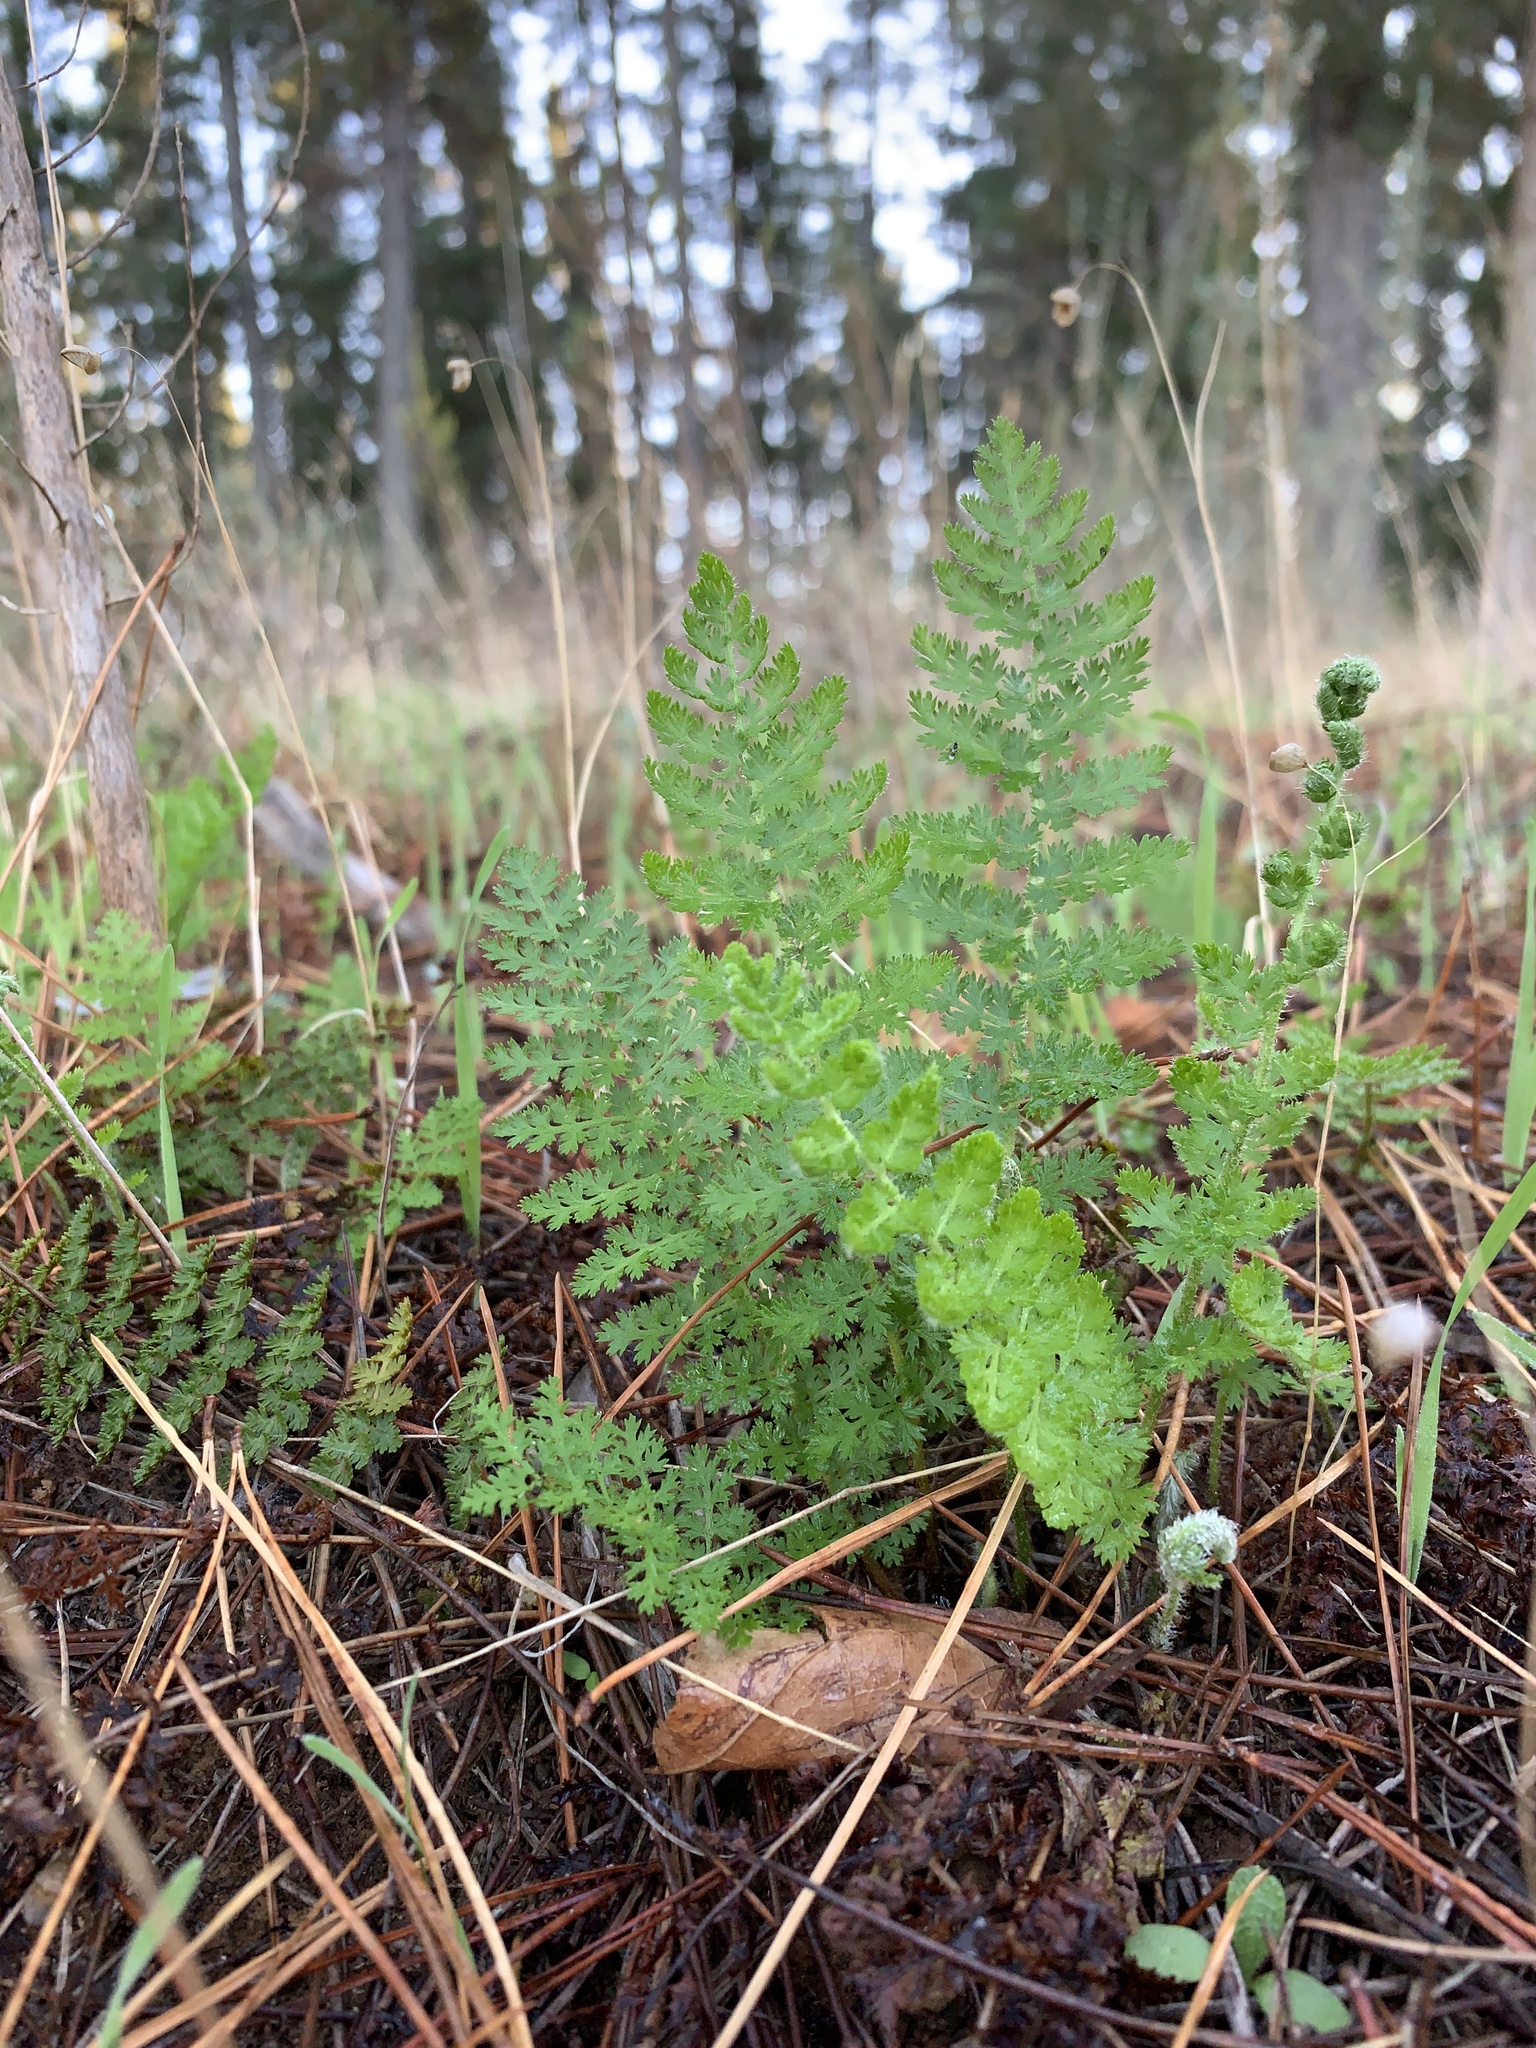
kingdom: Plantae
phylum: Tracheophyta
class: Polypodiopsida
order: Schizaeales
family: Anemiaceae
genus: Anemia
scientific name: Anemia caffrorum
